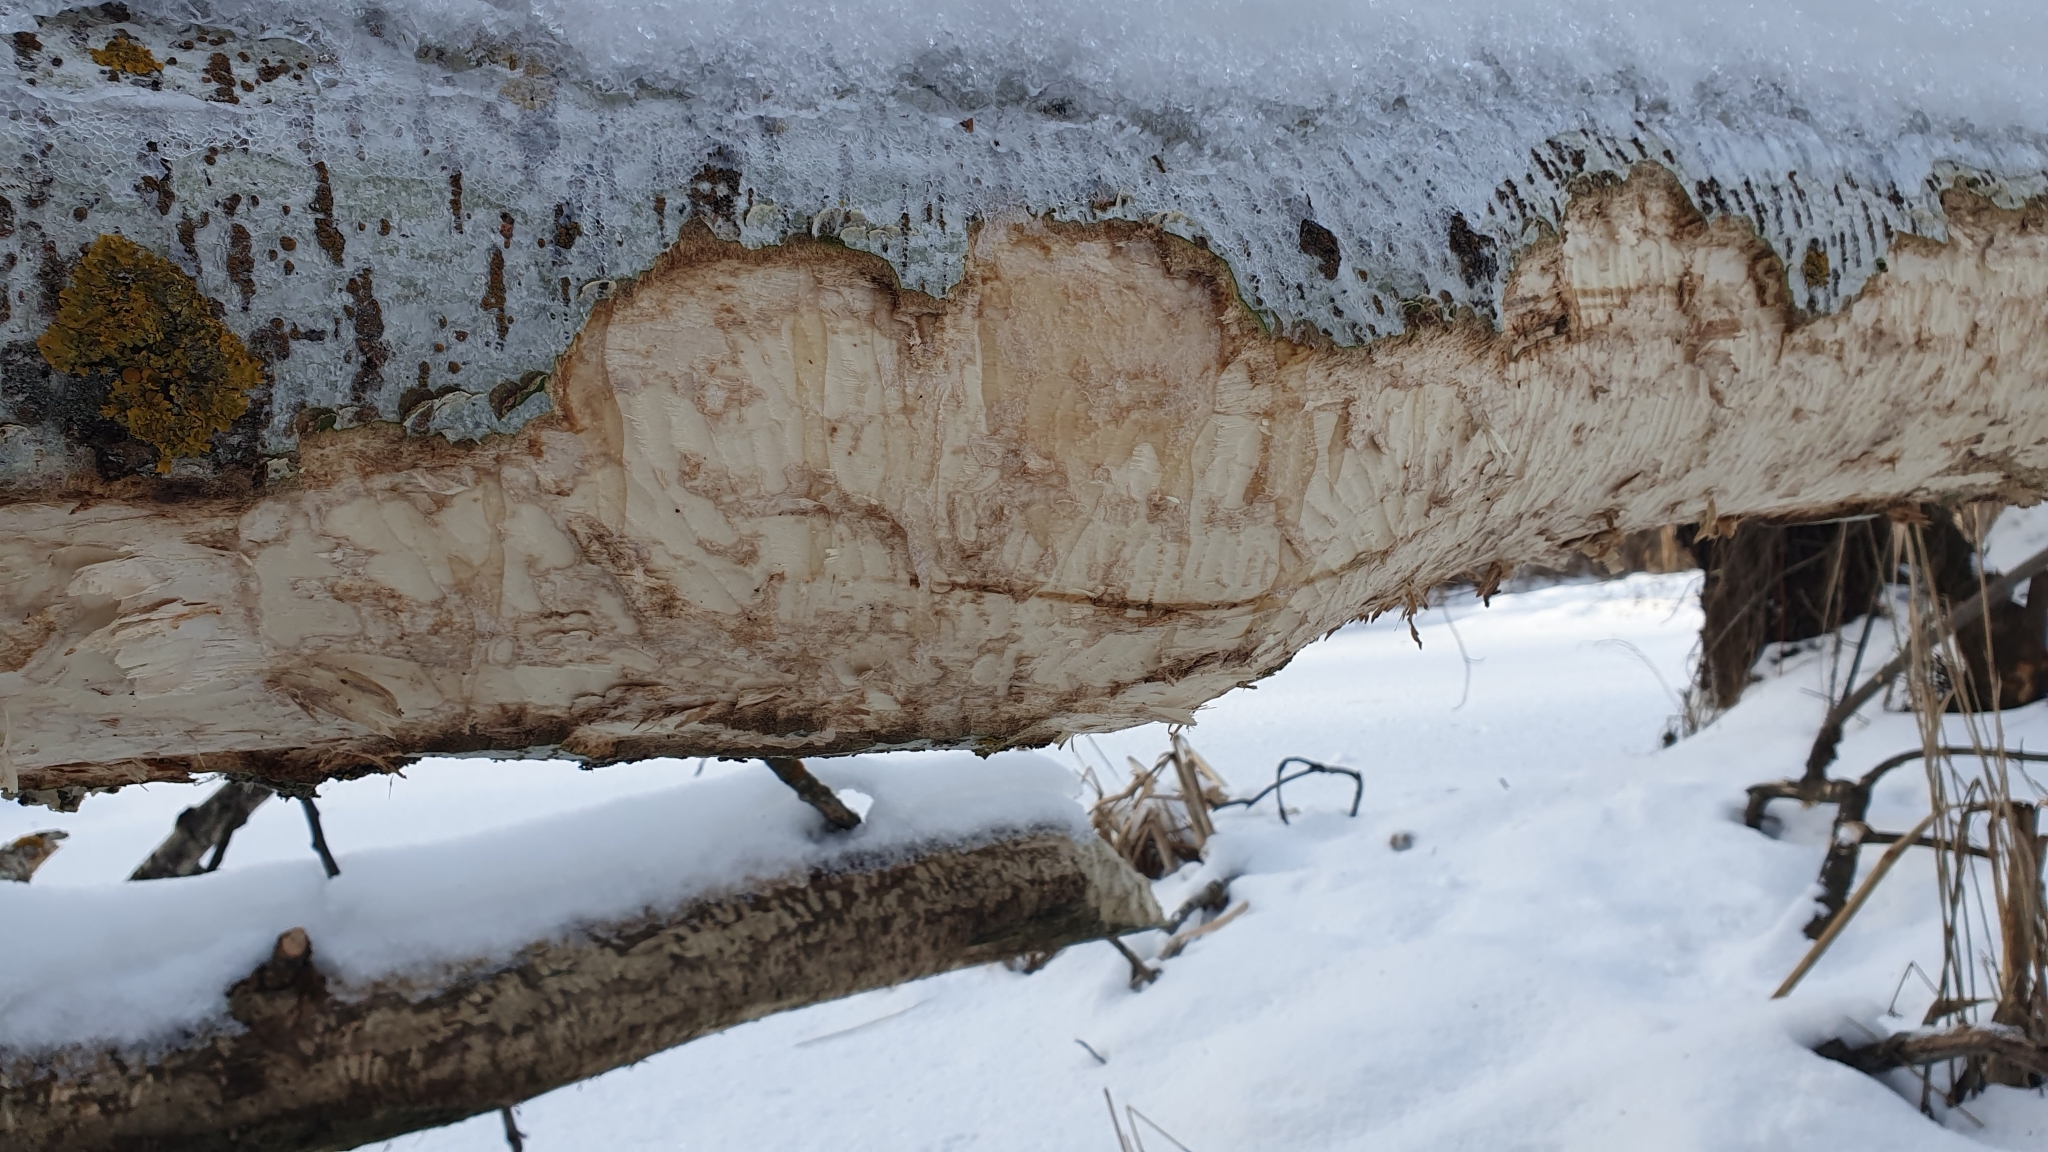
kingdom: Animalia
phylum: Chordata
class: Mammalia
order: Rodentia
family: Castoridae
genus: Castor
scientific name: Castor fiber
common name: Eurasian beaver
